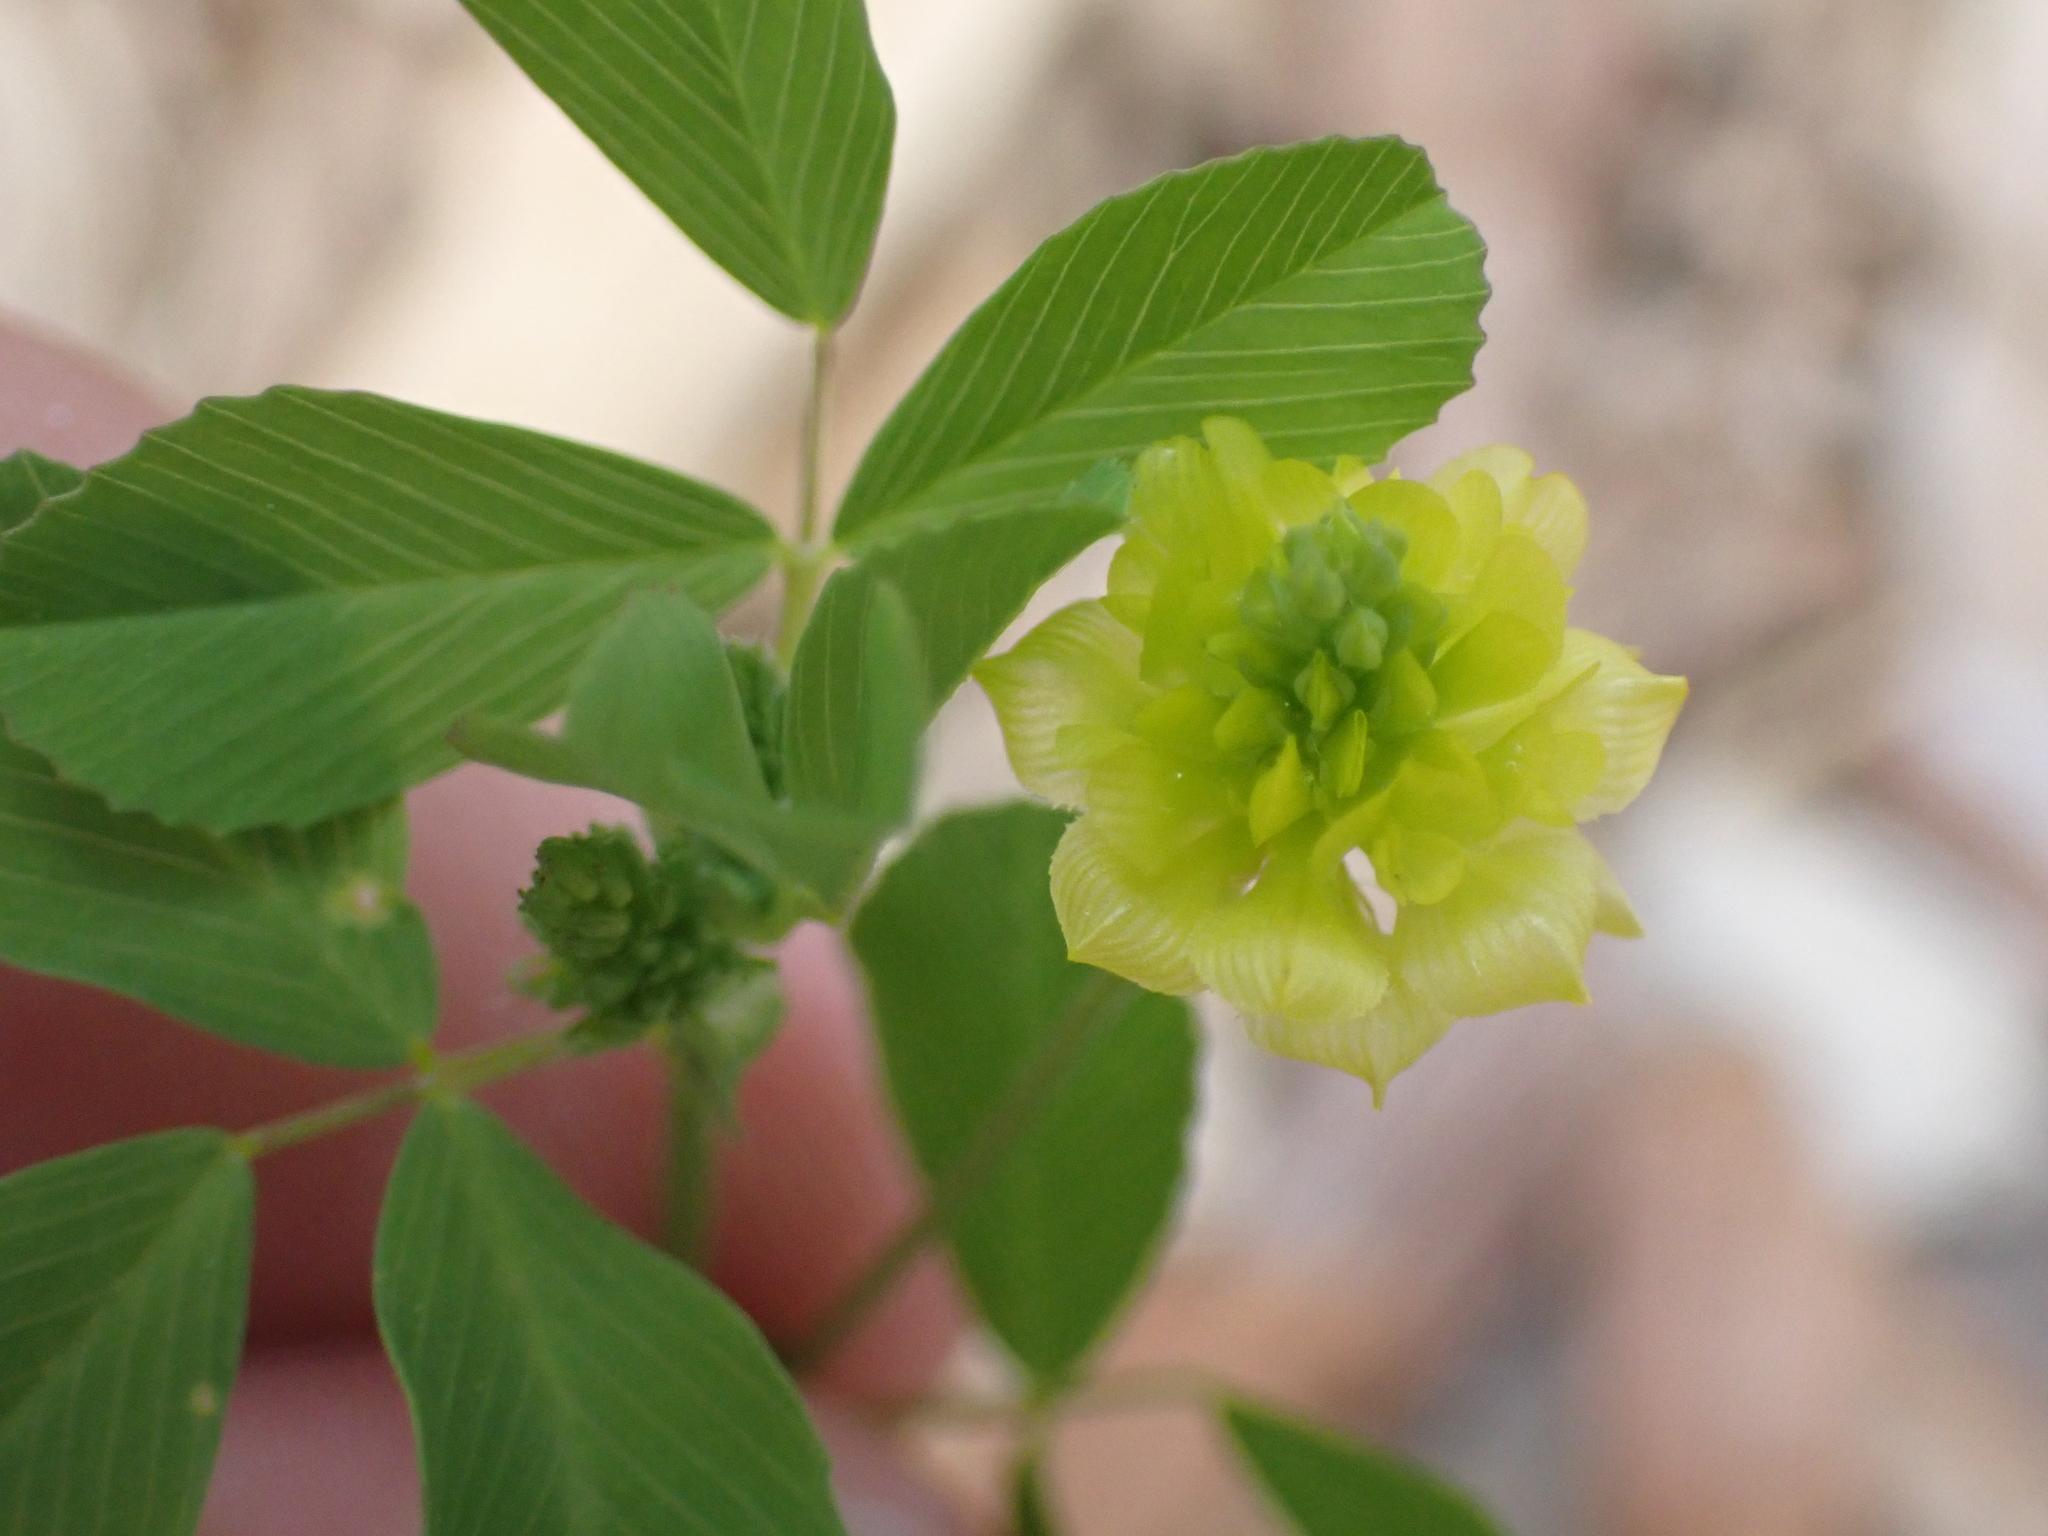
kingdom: Plantae
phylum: Tracheophyta
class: Magnoliopsida
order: Fabales
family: Fabaceae
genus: Trifolium
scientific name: Trifolium campestre
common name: Field clover
